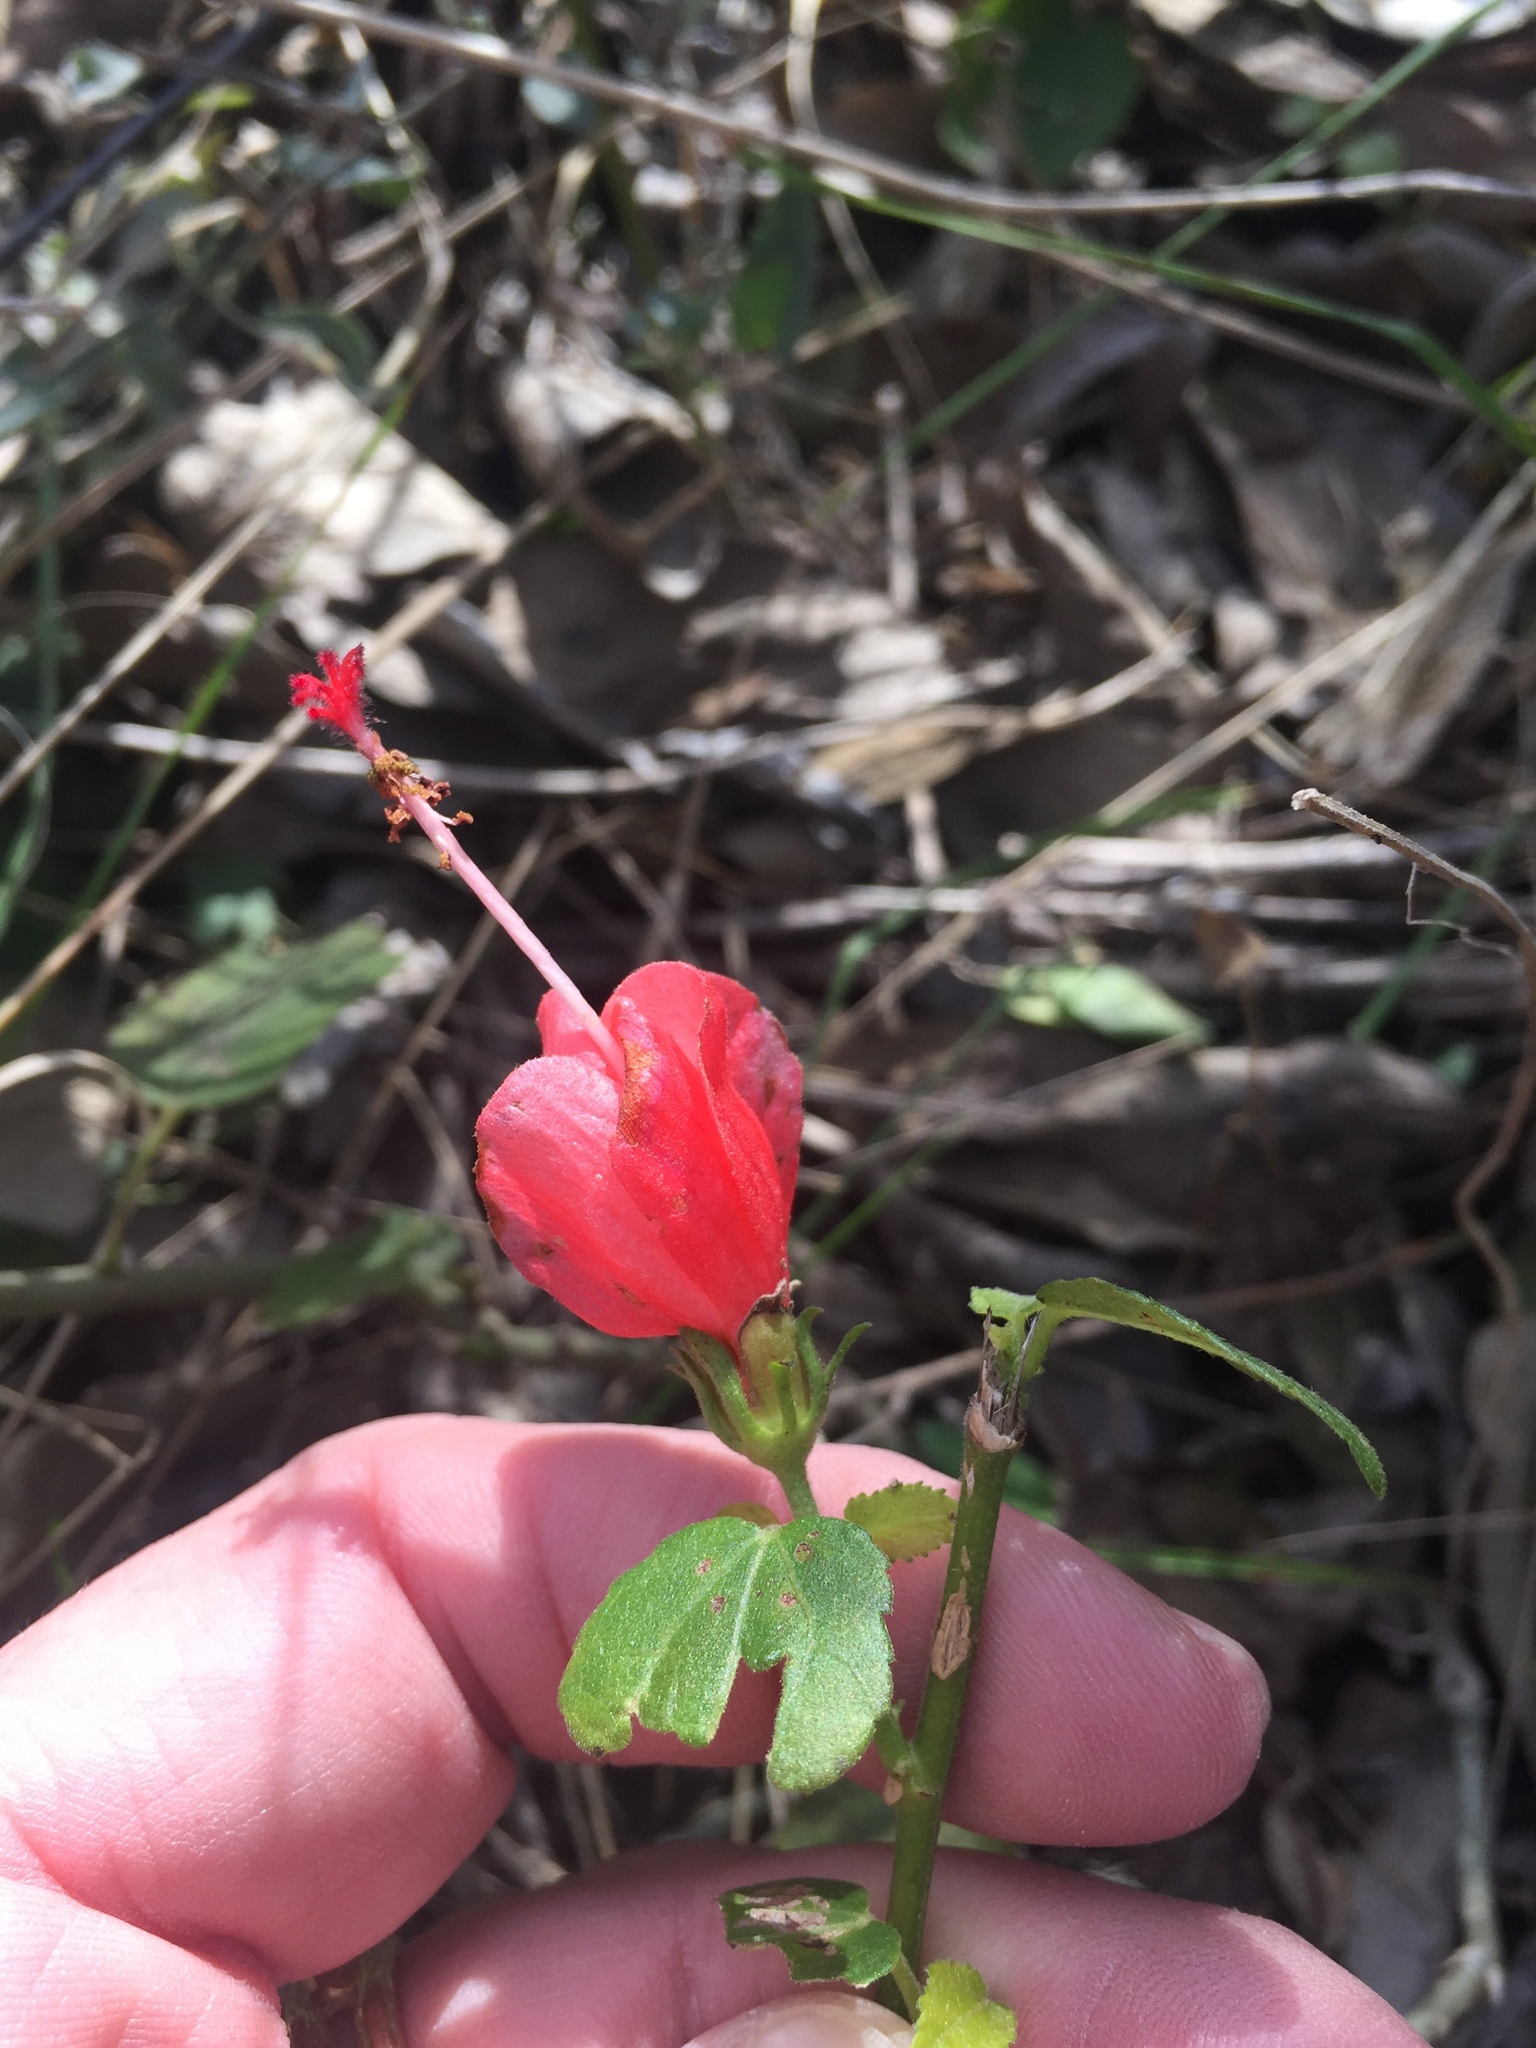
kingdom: Plantae
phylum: Tracheophyta
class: Magnoliopsida
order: Malvales
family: Malvaceae
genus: Malvaviscus
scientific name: Malvaviscus arboreus
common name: Wax mallow
